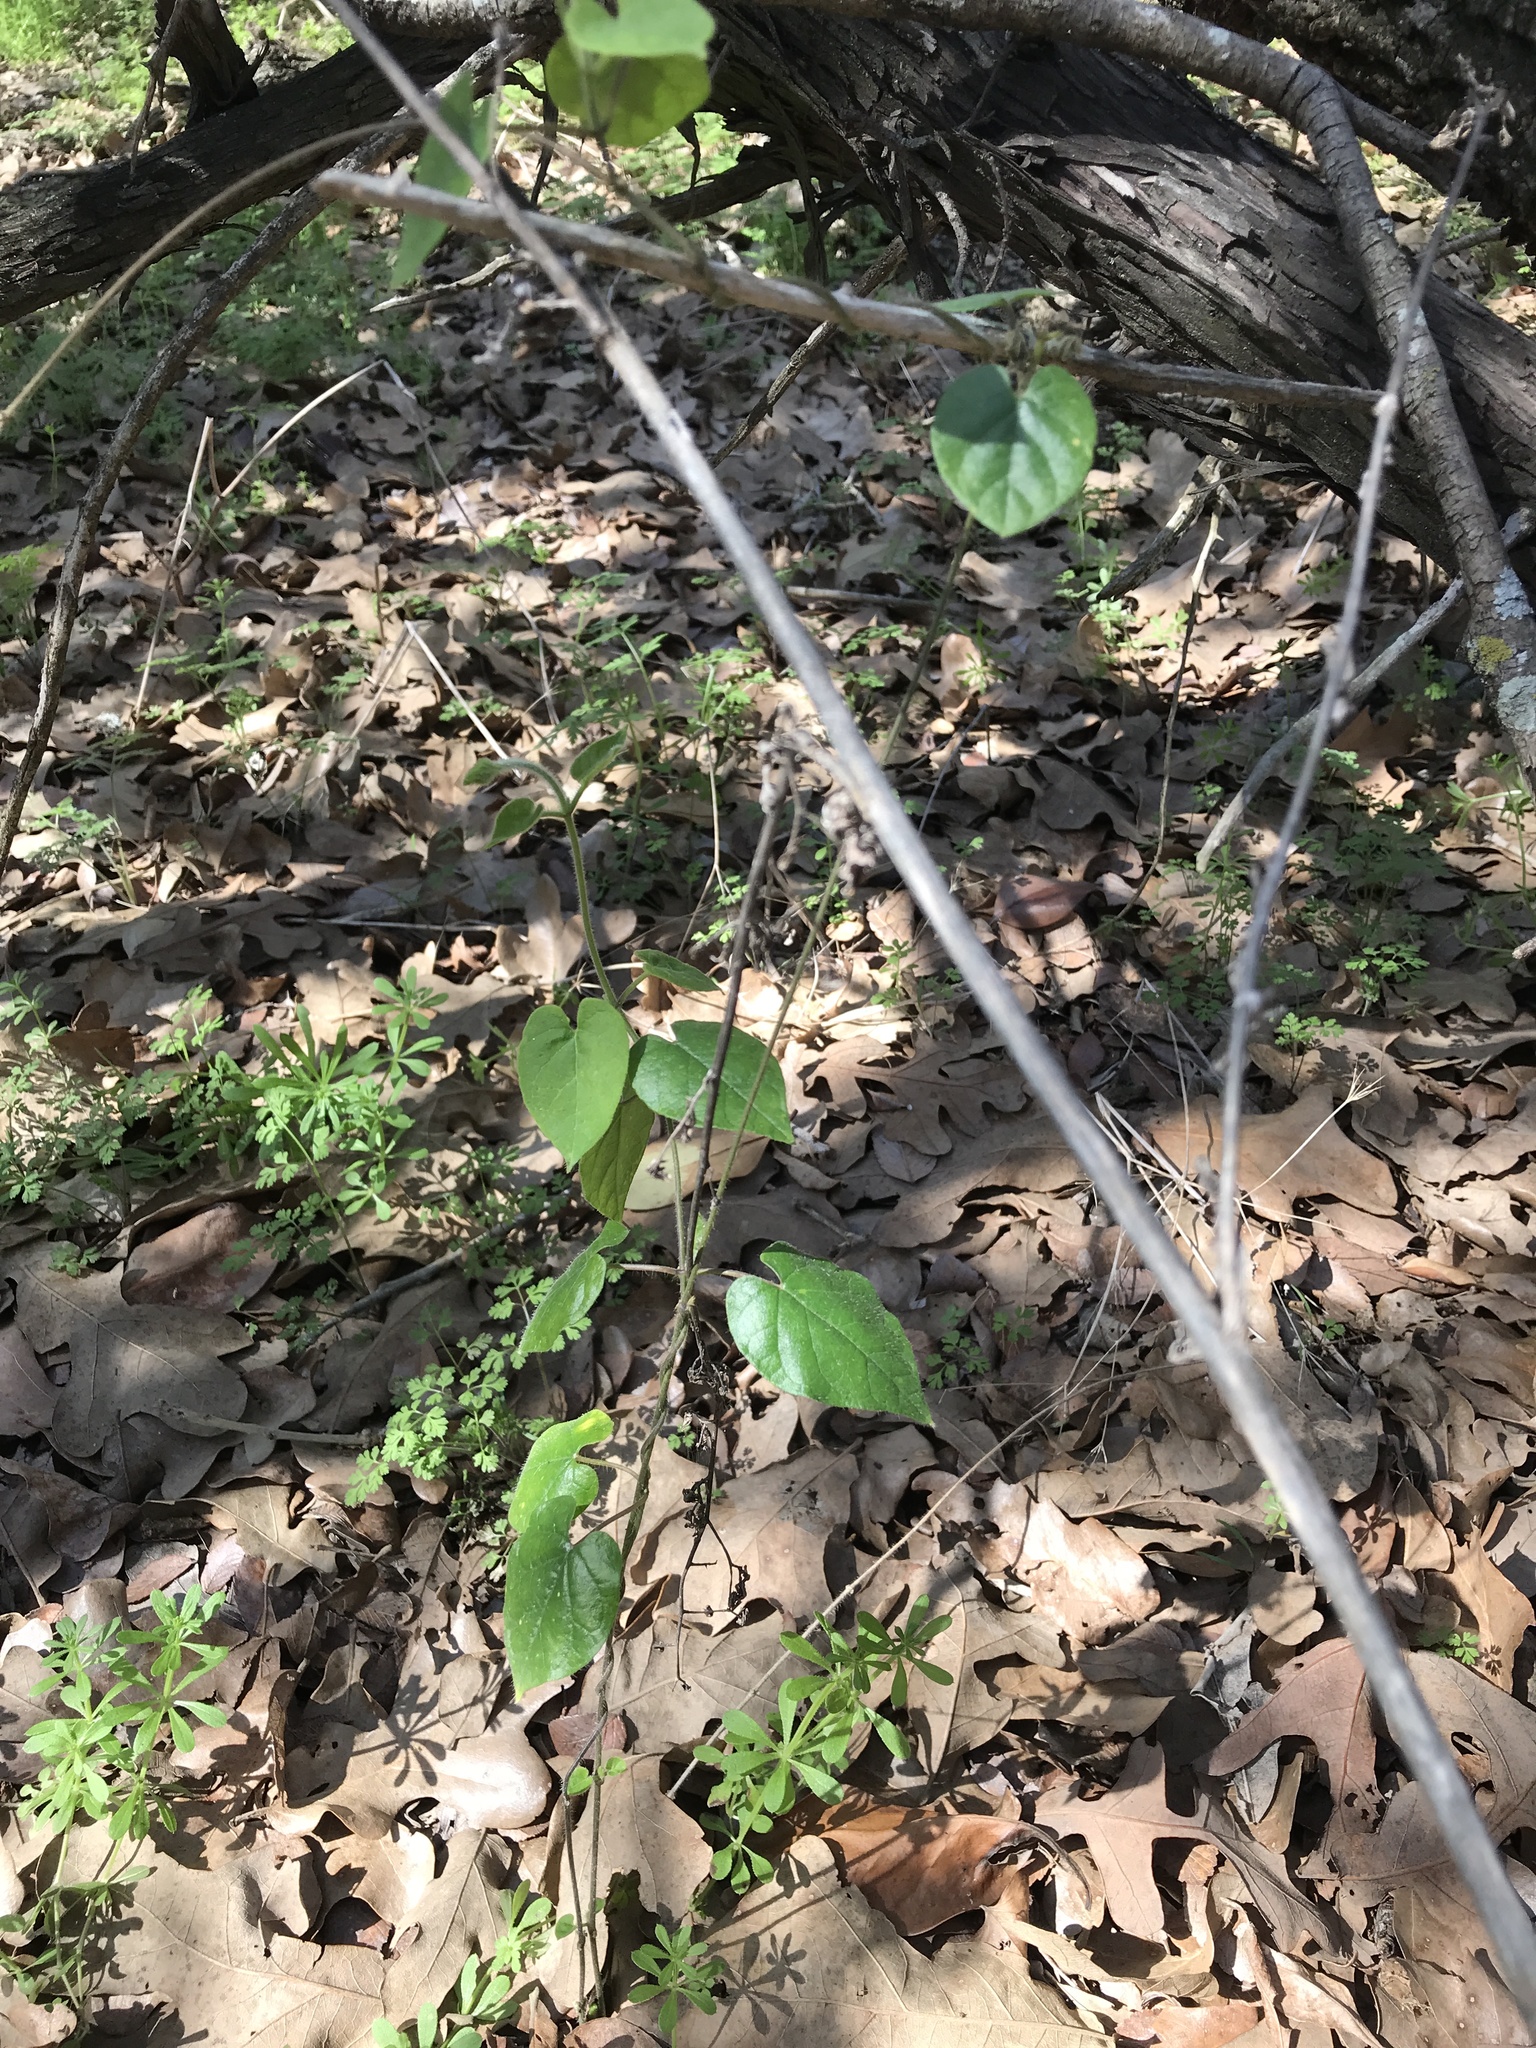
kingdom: Plantae
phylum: Tracheophyta
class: Magnoliopsida
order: Gentianales
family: Apocynaceae
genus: Dictyanthus
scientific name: Dictyanthus reticulatus
